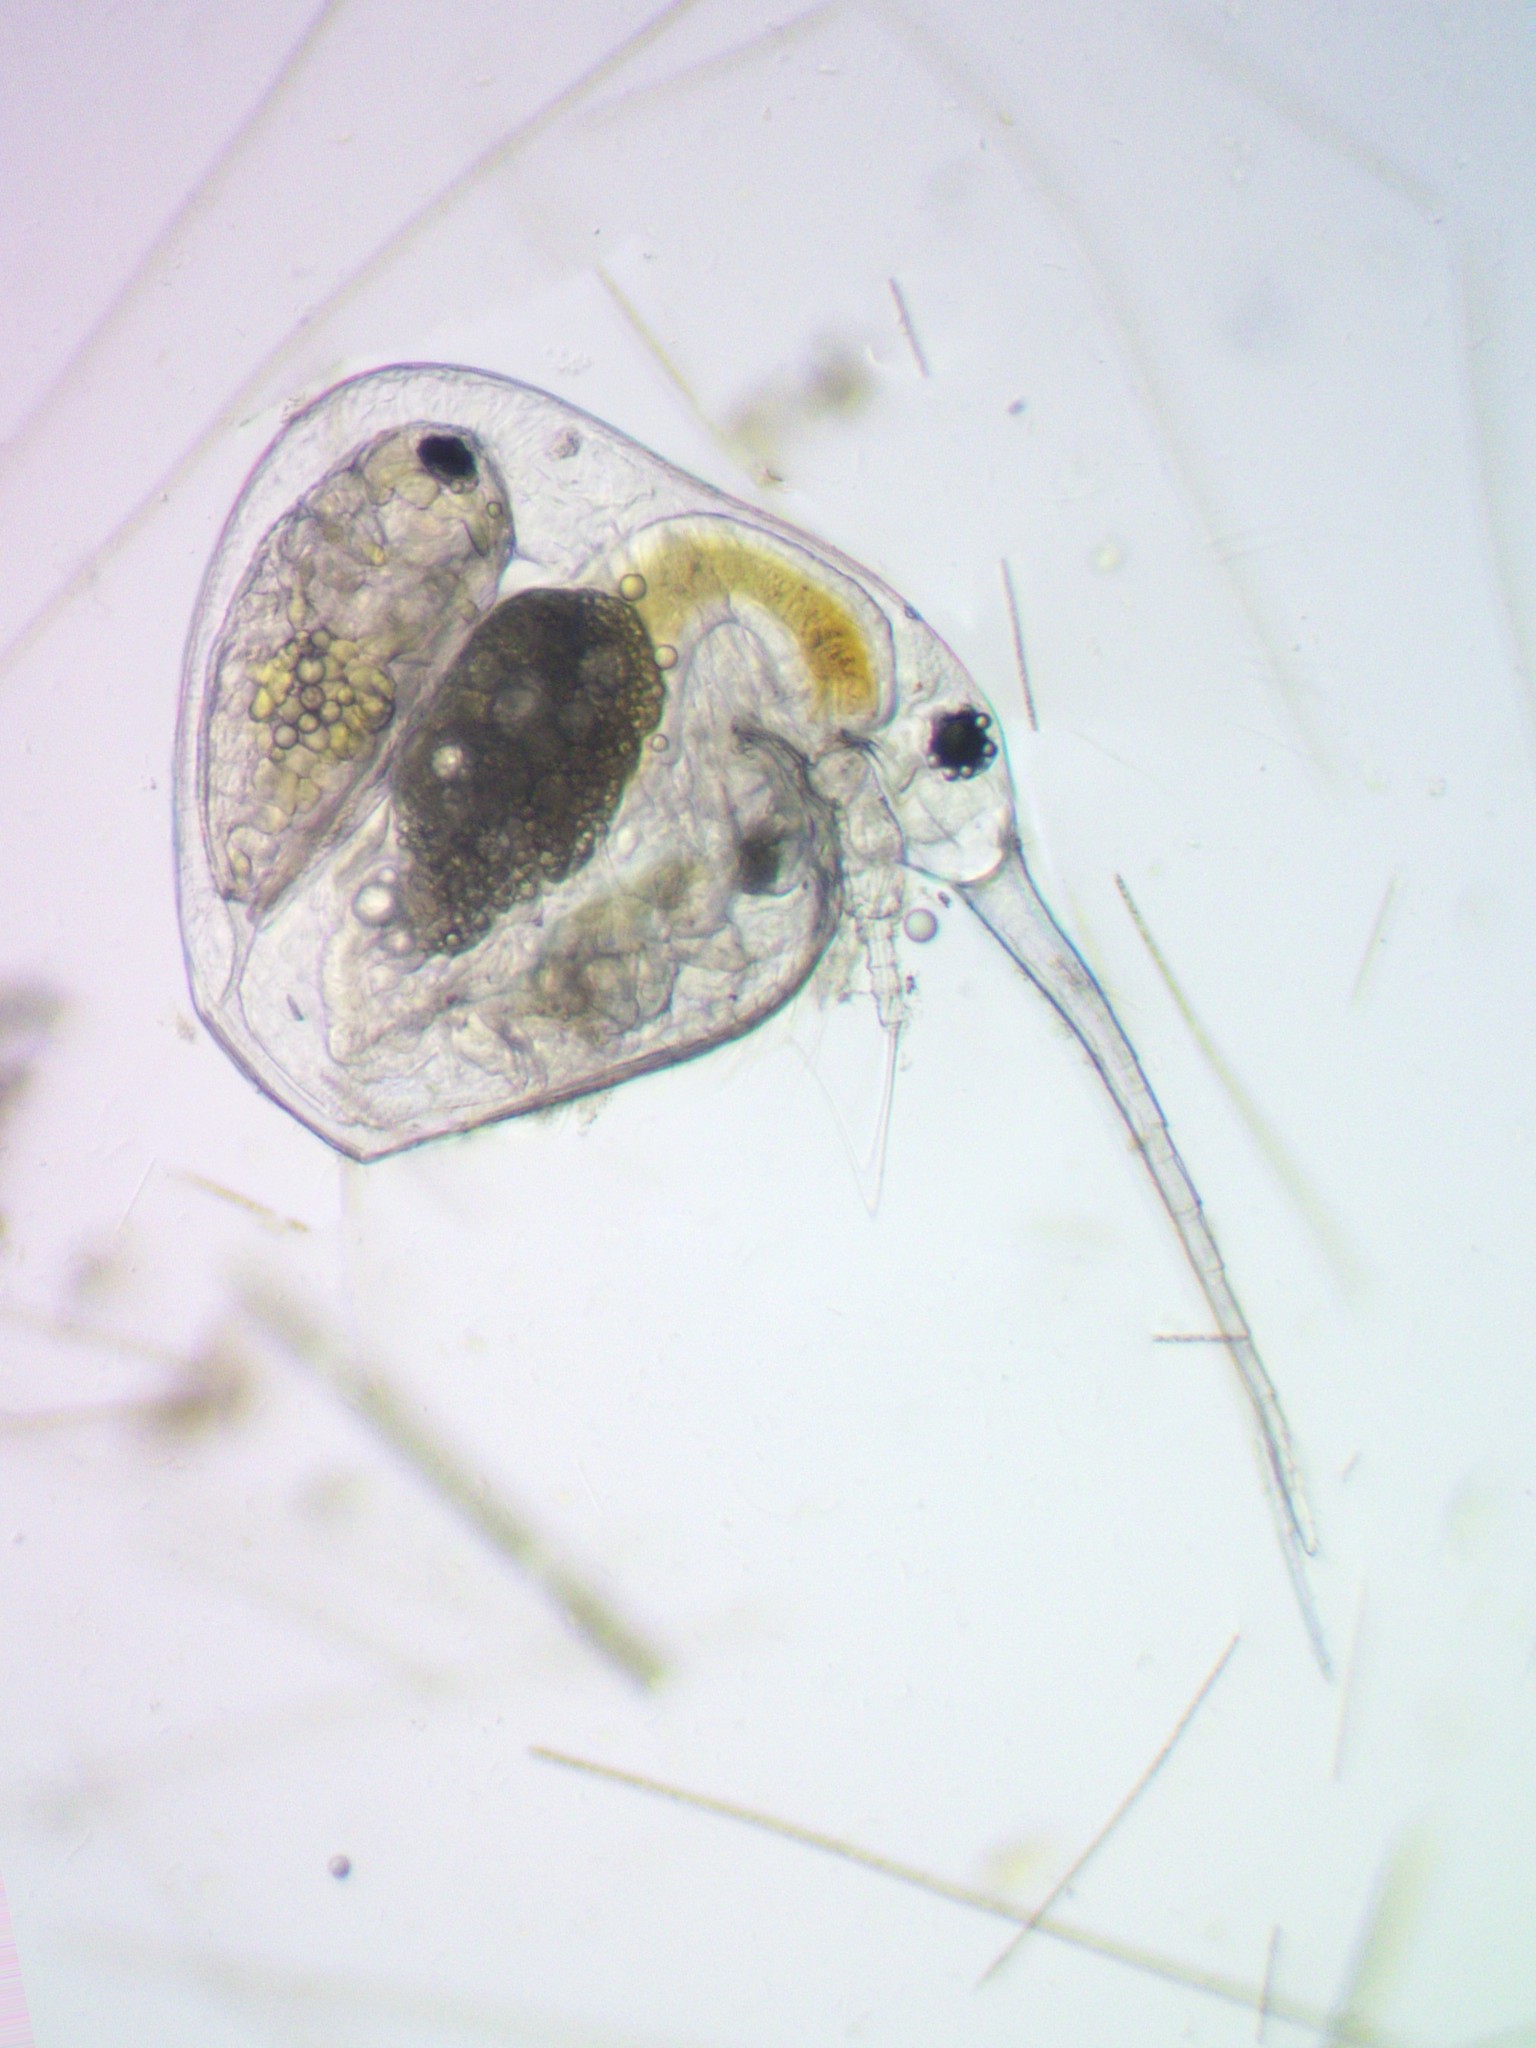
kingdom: Animalia
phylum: Arthropoda
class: Branchiopoda
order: Diplostraca
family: Bosminidae
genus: Bosmina
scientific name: Bosmina coregoni
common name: Water flea
